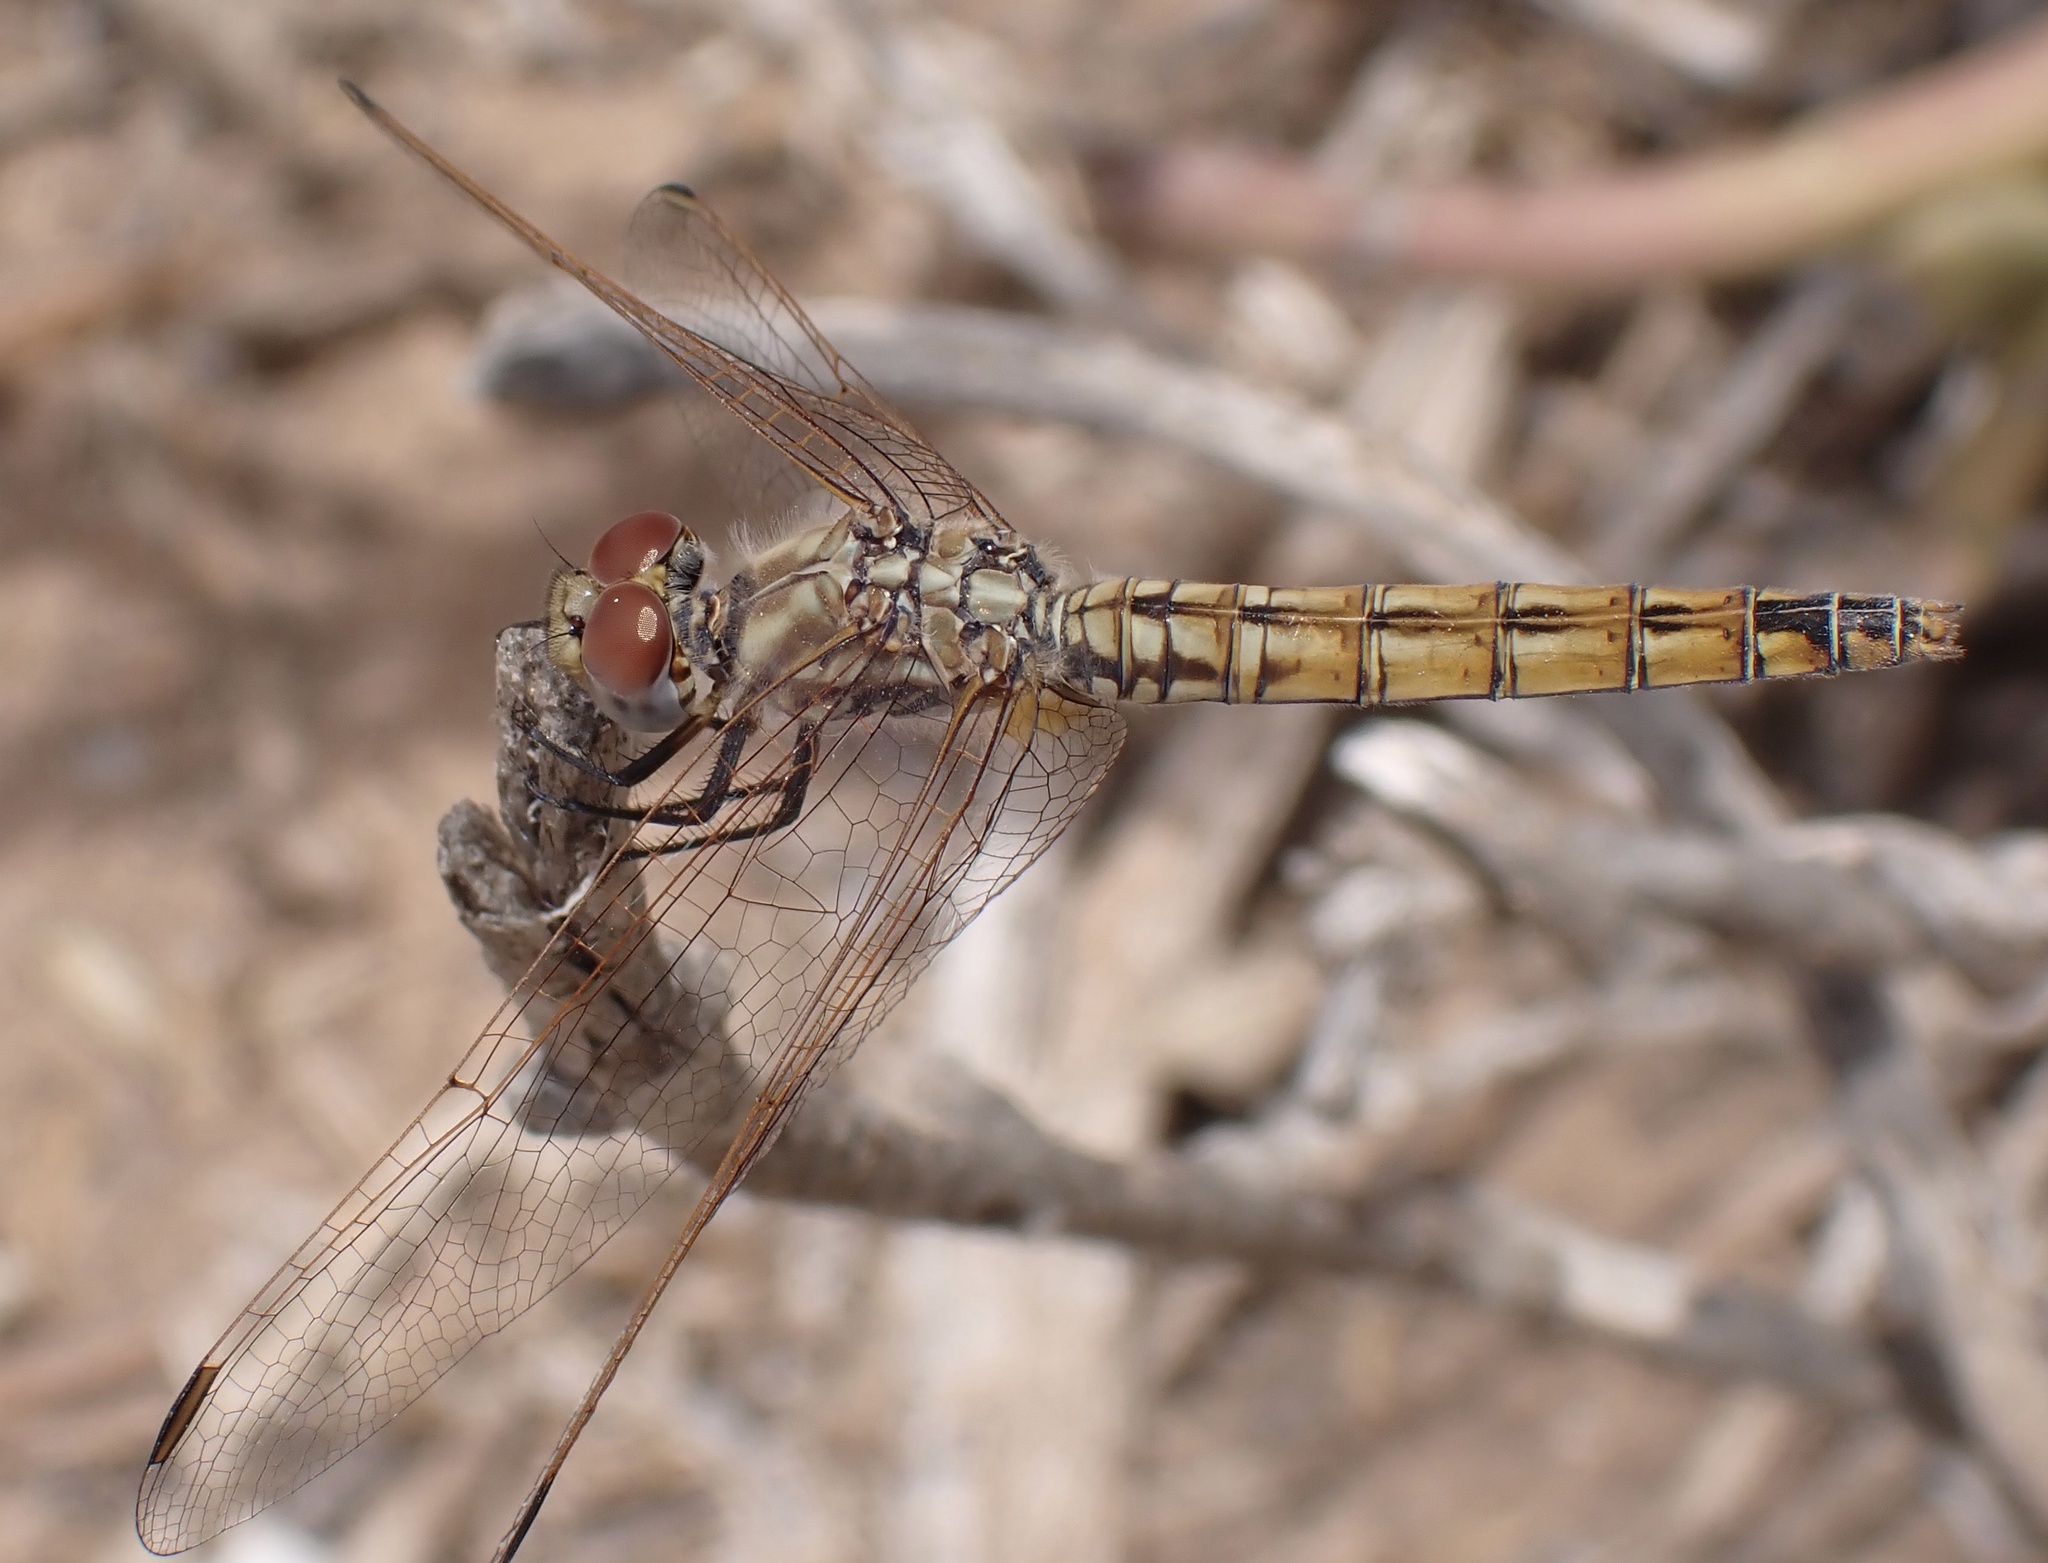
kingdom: Animalia
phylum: Arthropoda
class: Insecta
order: Odonata
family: Libellulidae
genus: Trithemis
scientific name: Trithemis annulata
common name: Violet dropwing
